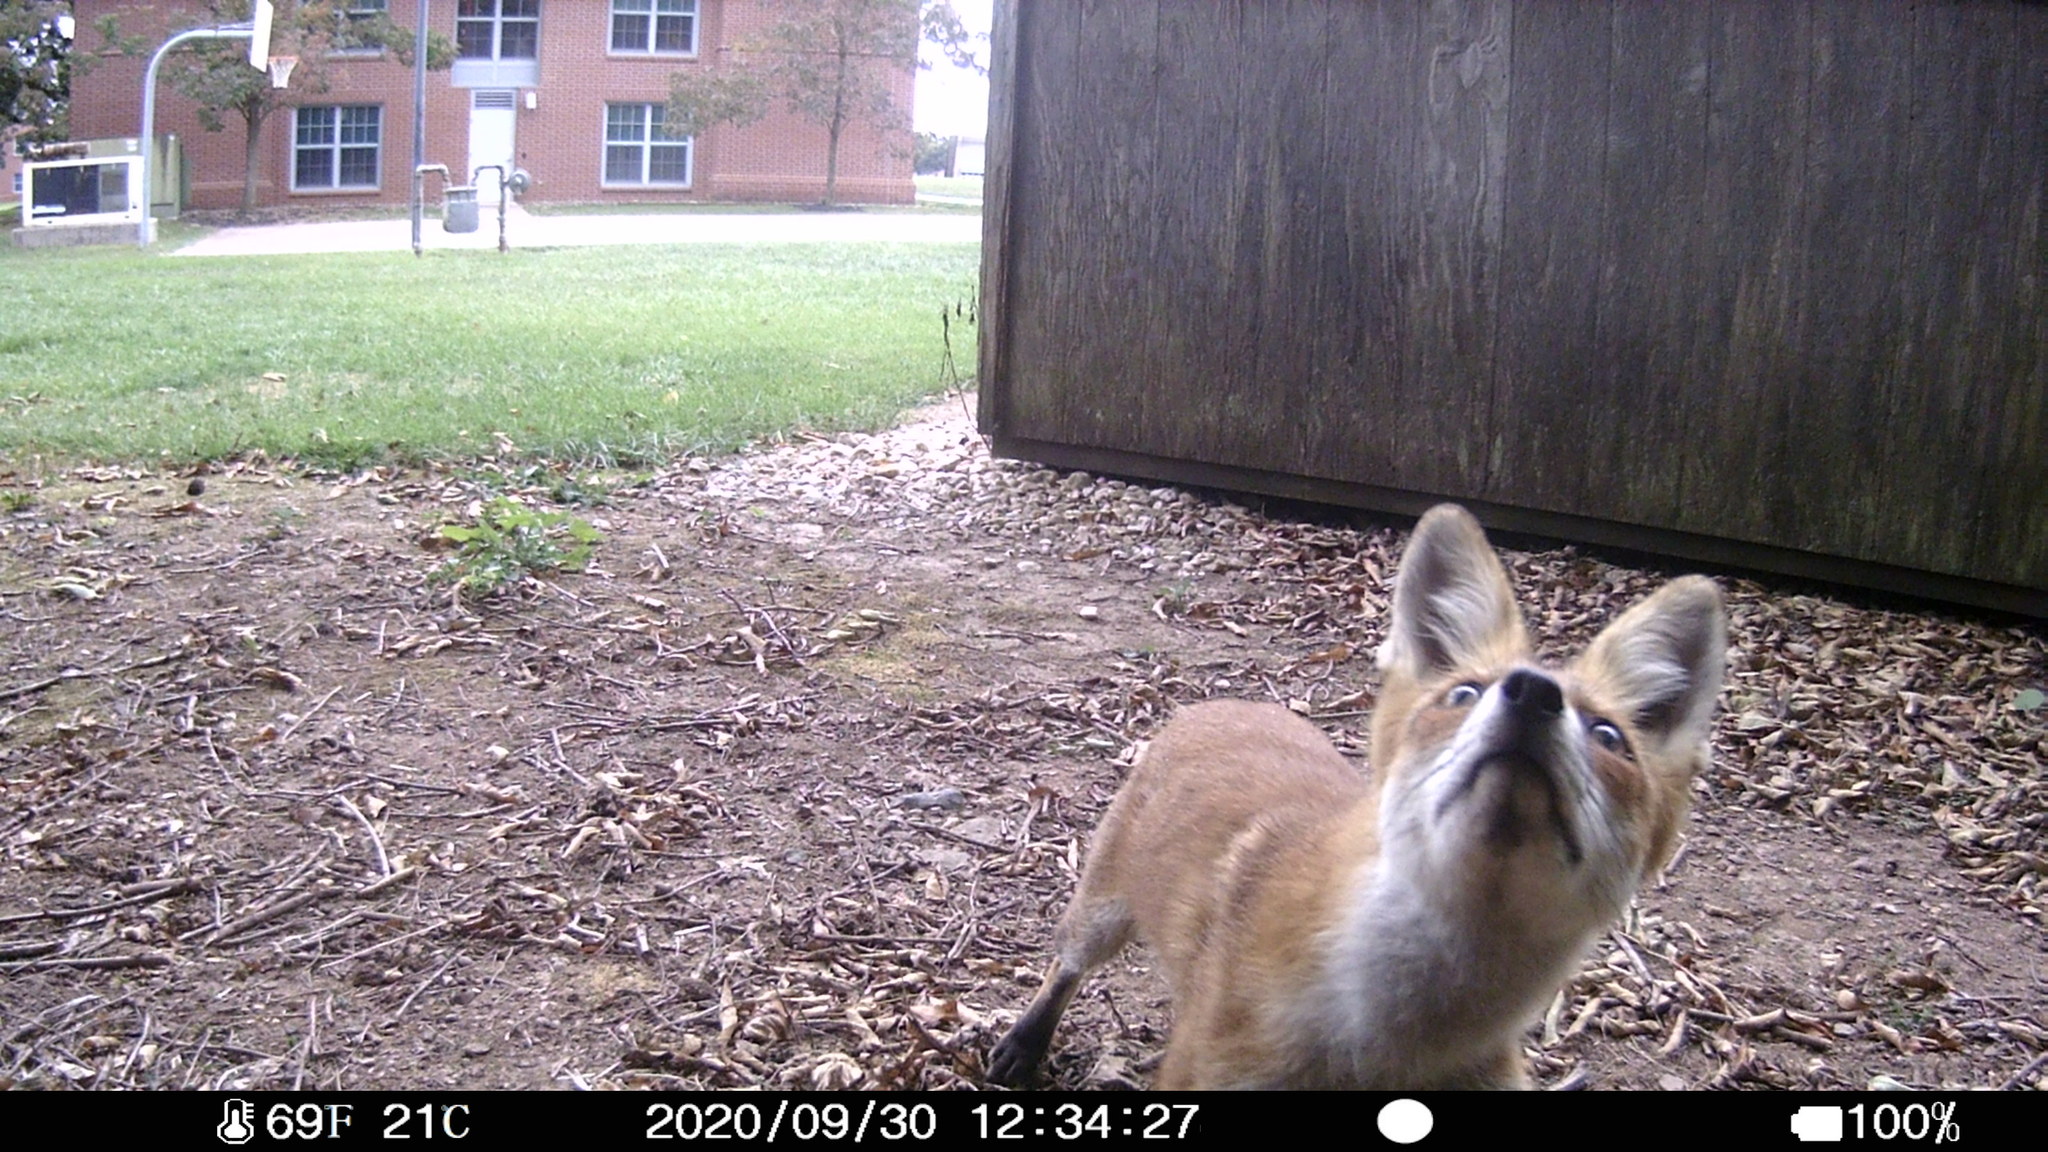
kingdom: Animalia
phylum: Chordata
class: Mammalia
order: Carnivora
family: Canidae
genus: Vulpes
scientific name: Vulpes vulpes
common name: Red fox
